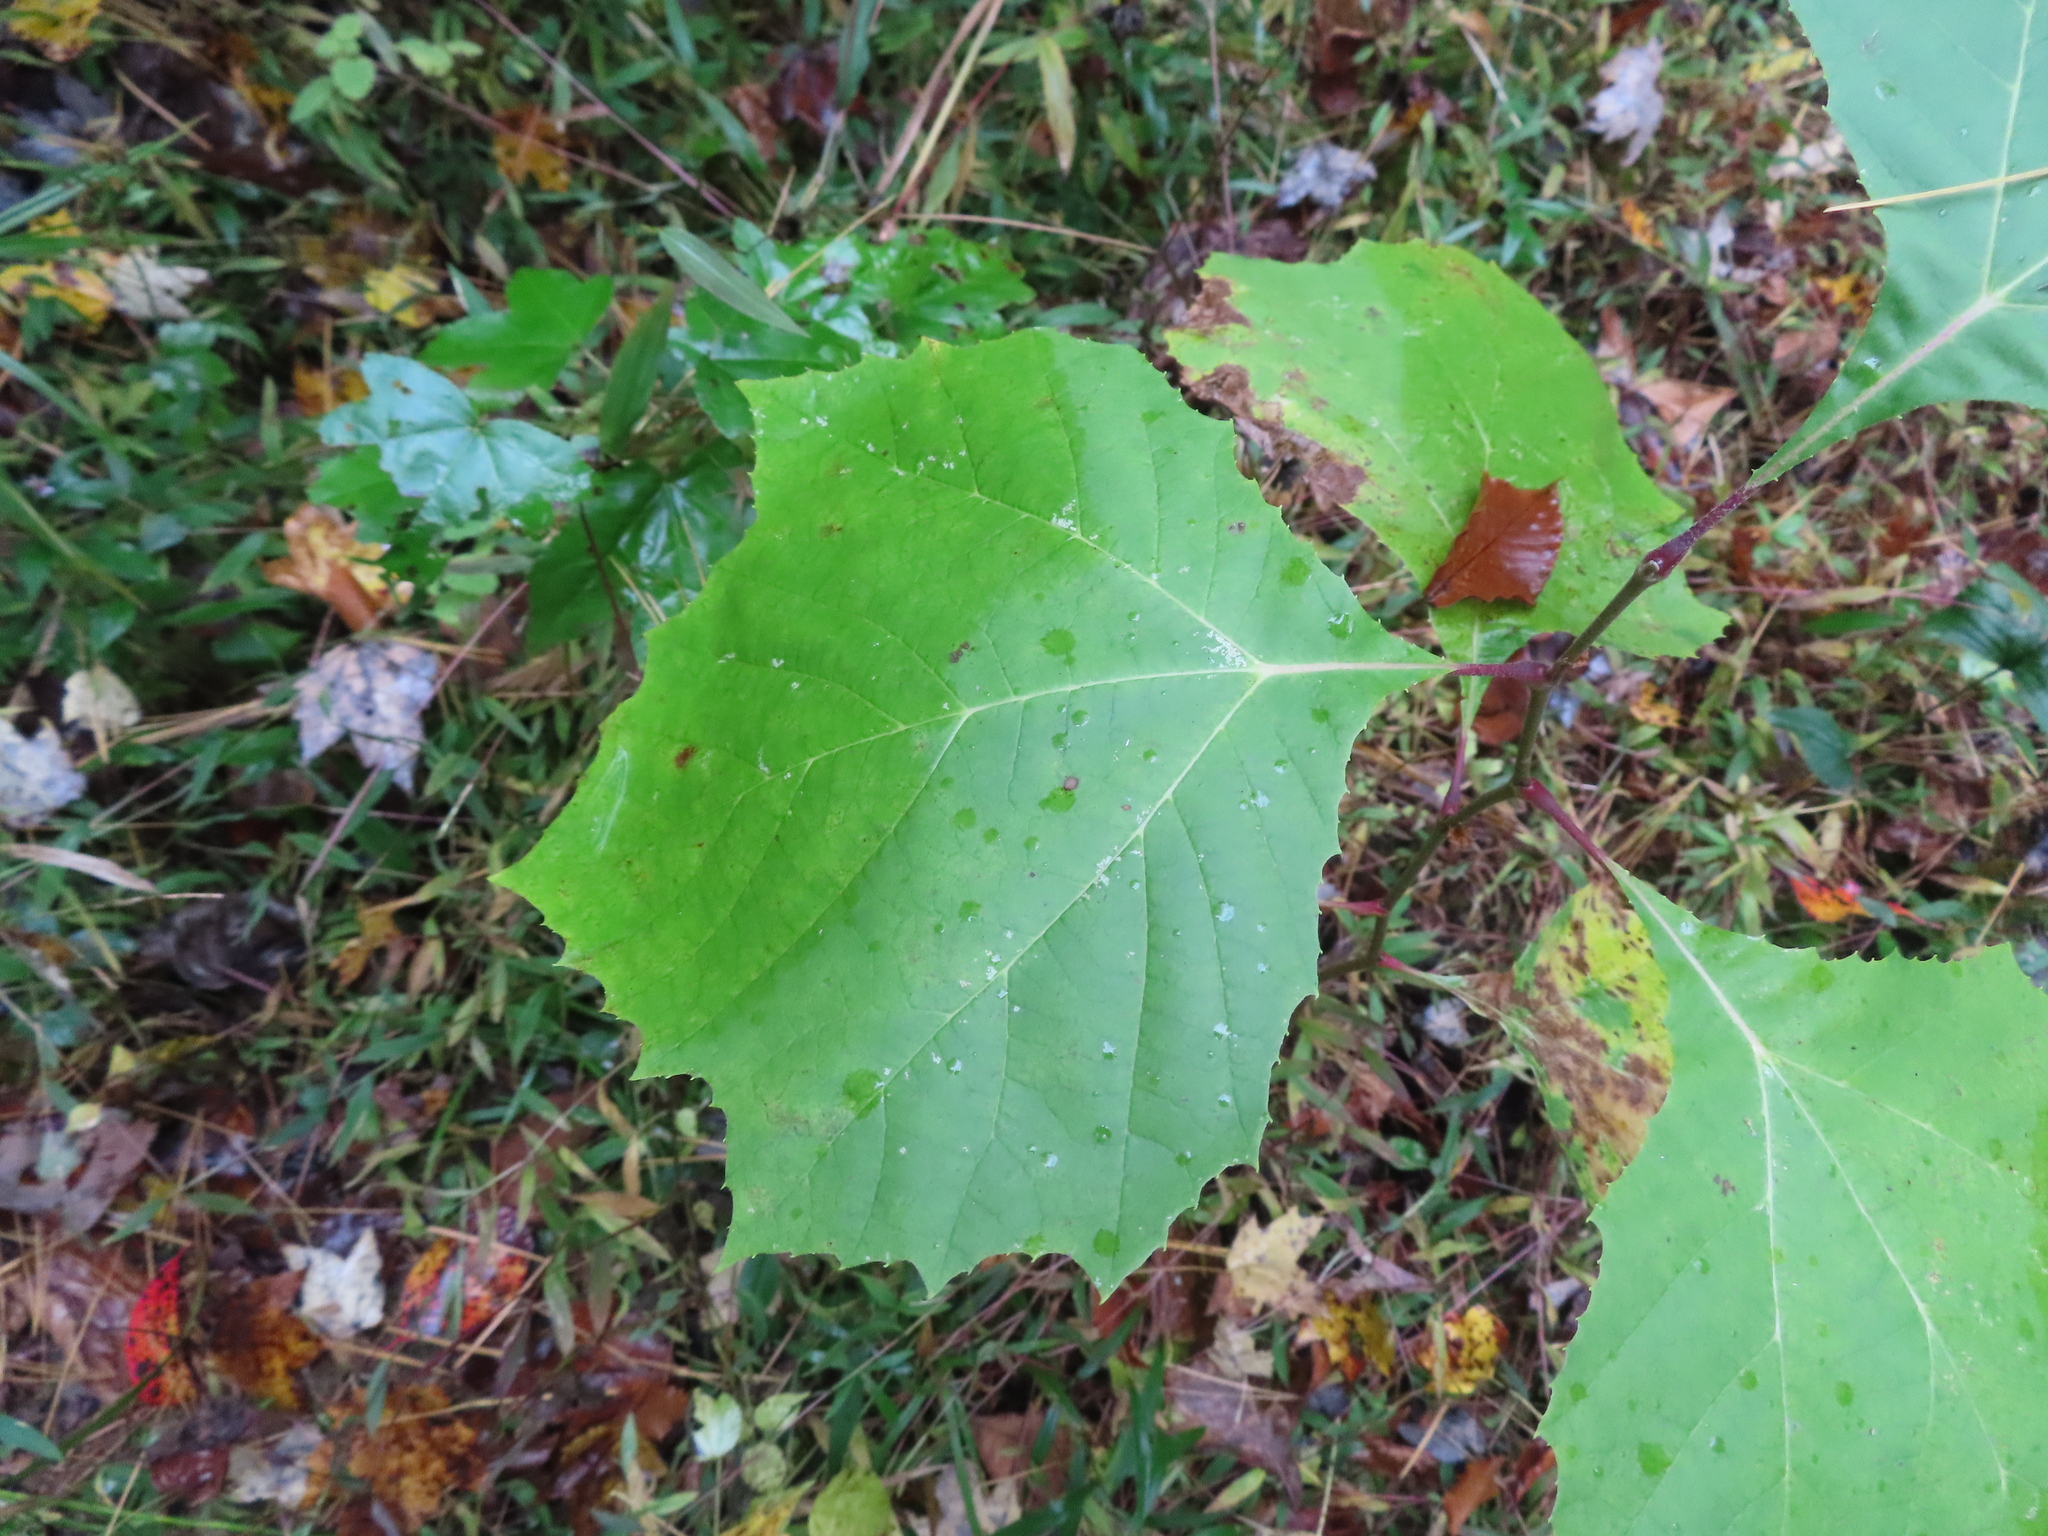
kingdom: Plantae
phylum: Tracheophyta
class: Magnoliopsida
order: Proteales
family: Platanaceae
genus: Platanus
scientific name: Platanus occidentalis
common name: American sycamore
